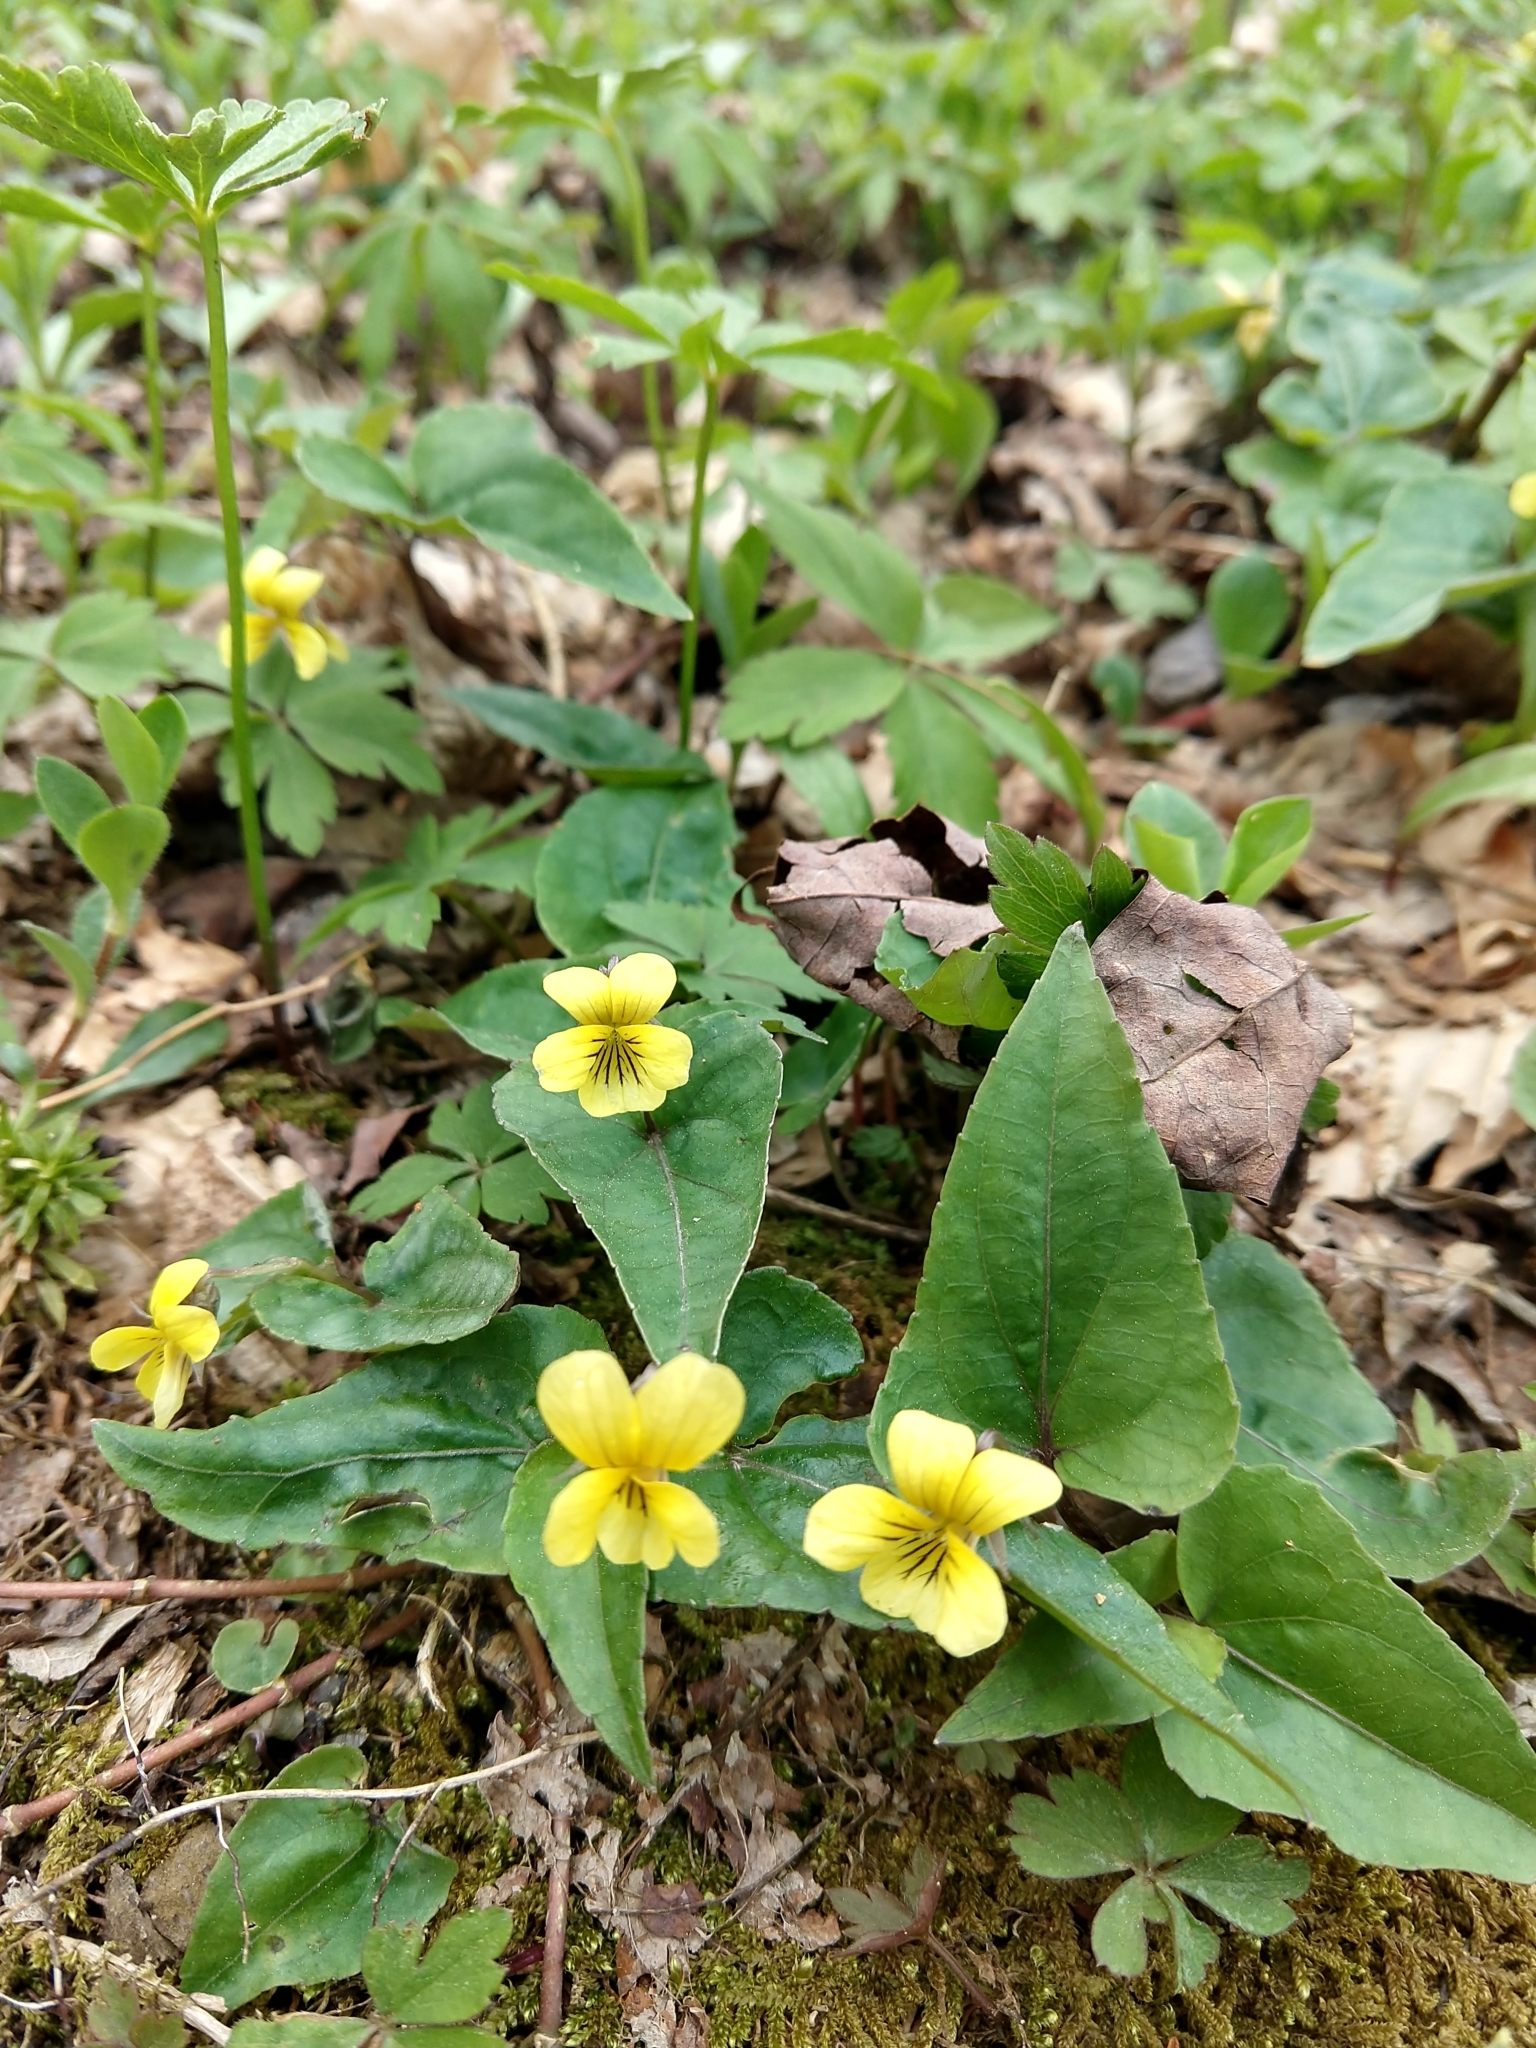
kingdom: Plantae
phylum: Tracheophyta
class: Magnoliopsida
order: Malpighiales
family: Violaceae
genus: Viola
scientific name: Viola hastata
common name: Spear-leaf violet
